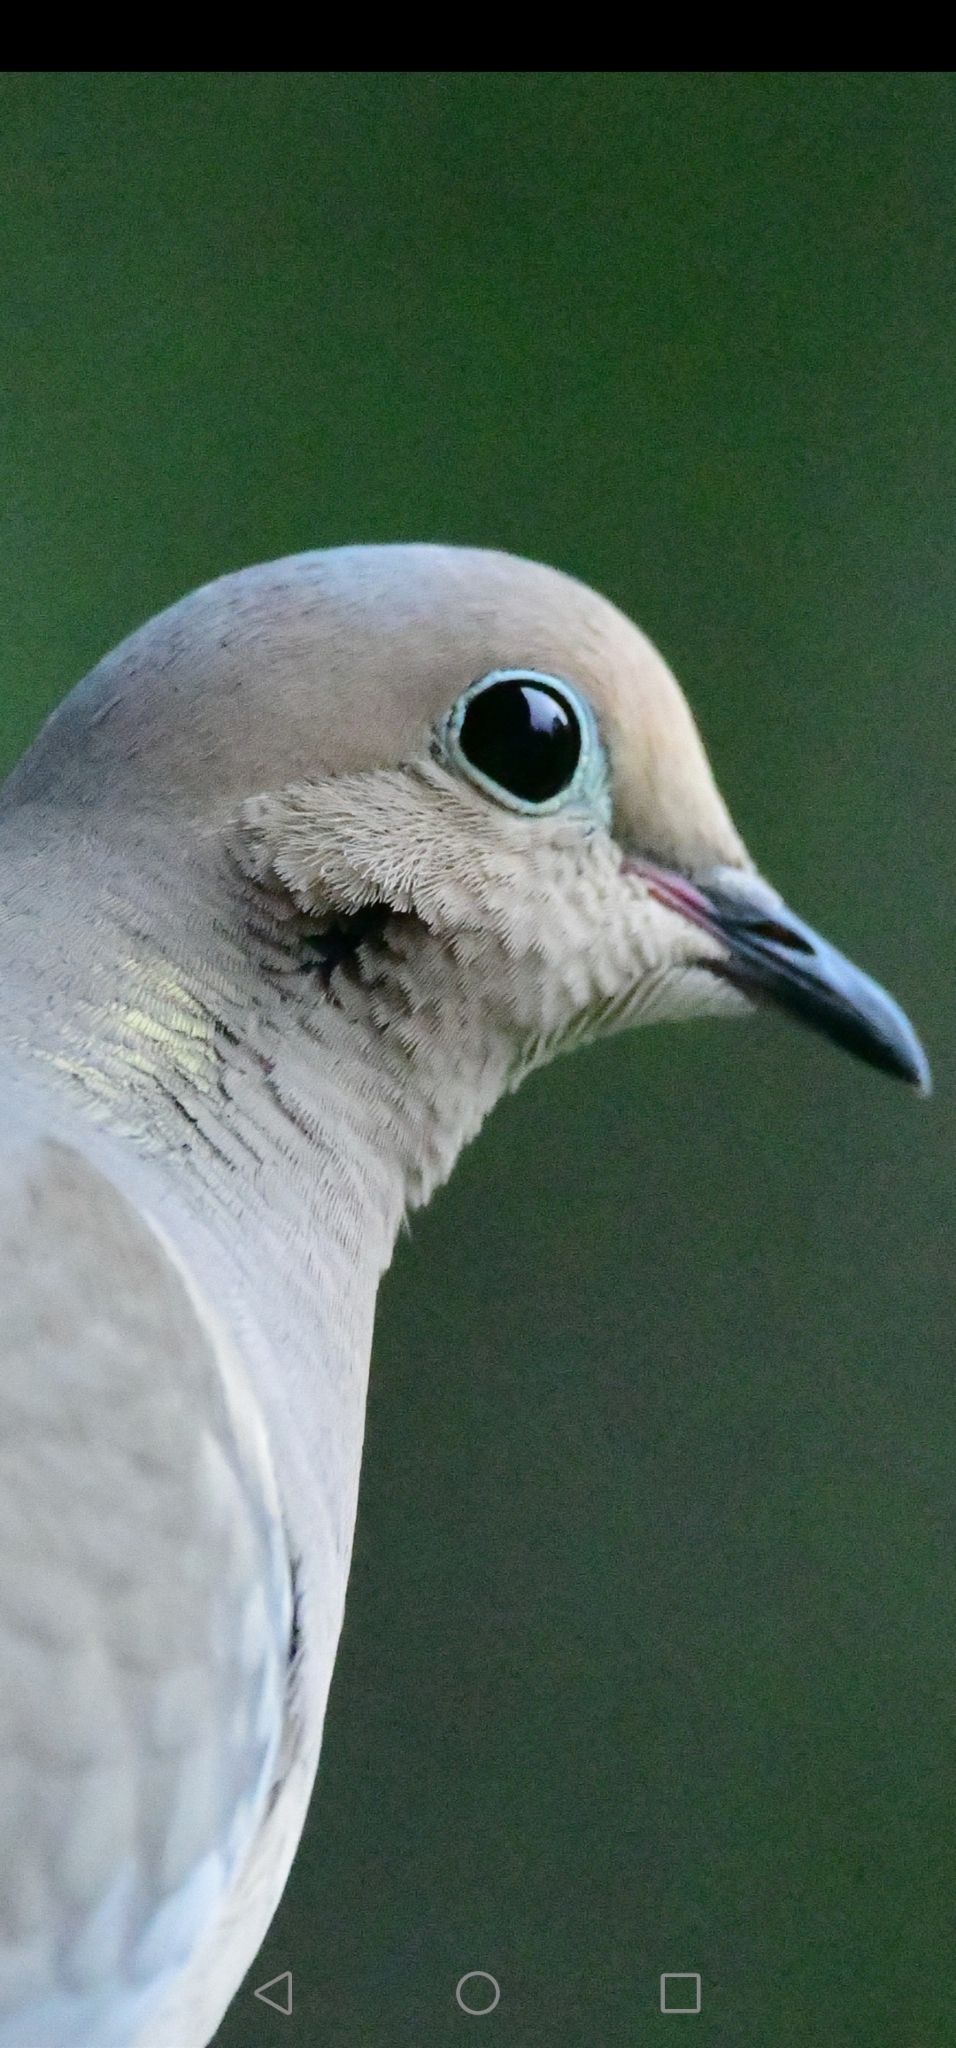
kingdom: Animalia
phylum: Chordata
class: Aves
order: Columbiformes
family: Columbidae
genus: Zenaida
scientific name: Zenaida macroura
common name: Mourning dove
